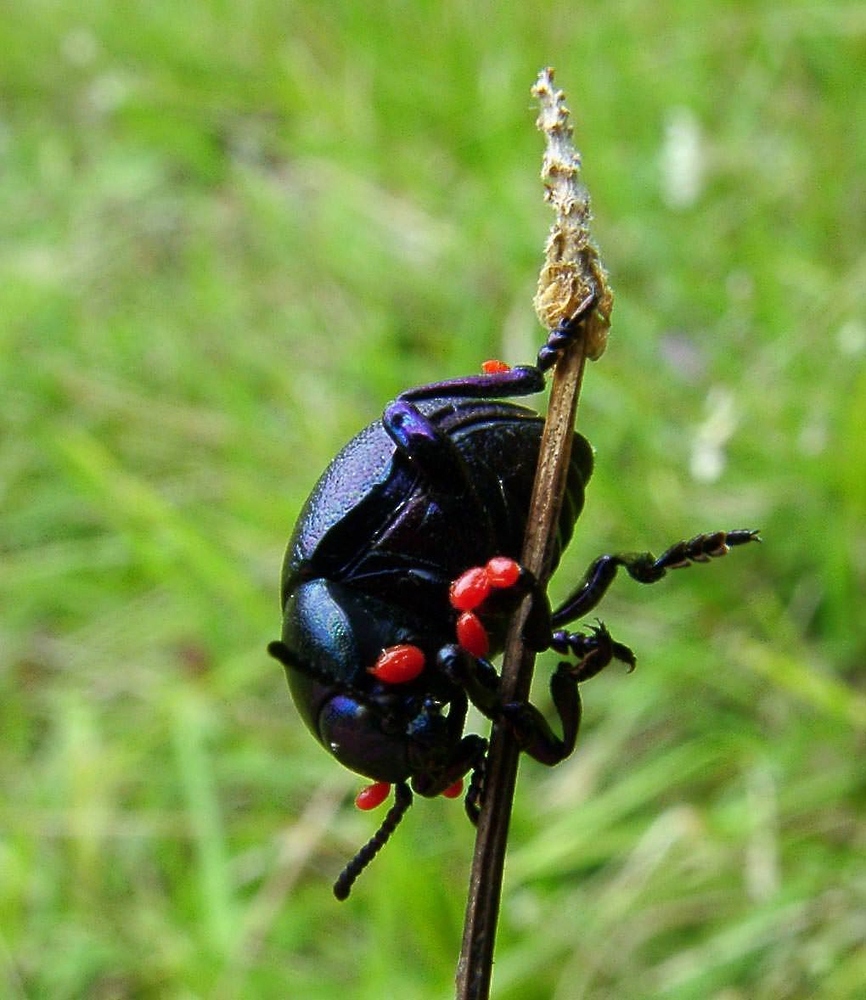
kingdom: Animalia
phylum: Arthropoda
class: Insecta
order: Coleoptera
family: Chrysomelidae
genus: Timarcha
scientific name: Timarcha goettingensis
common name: Small bloody-nosed beetle
